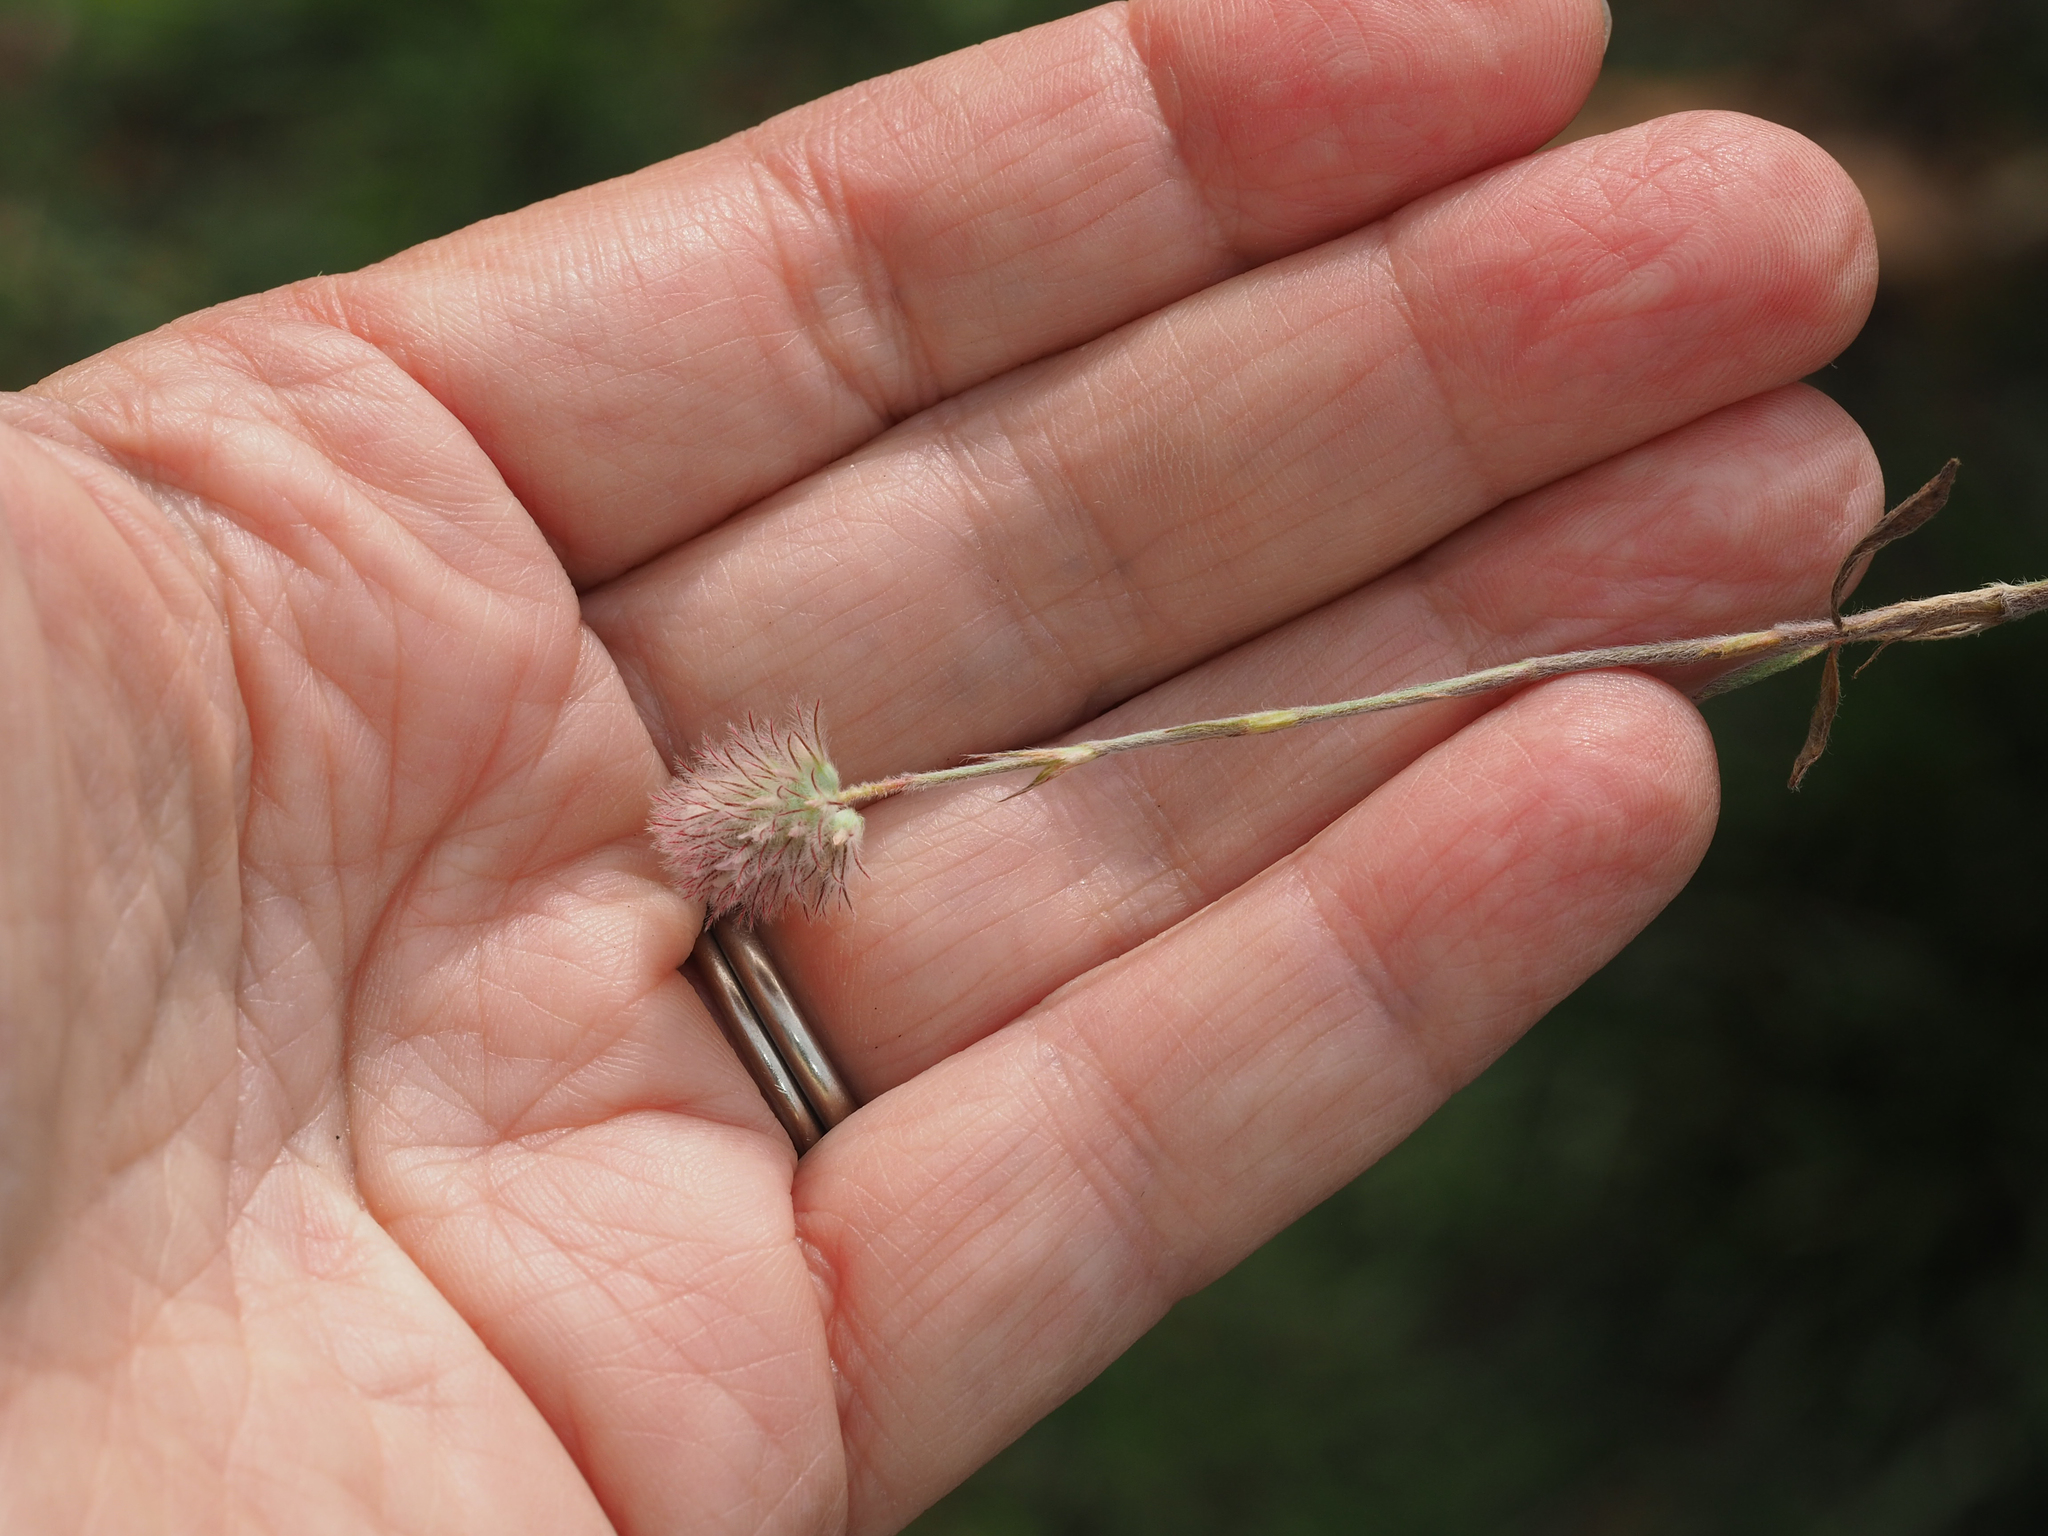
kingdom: Plantae
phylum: Tracheophyta
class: Magnoliopsida
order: Fabales
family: Fabaceae
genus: Trifolium
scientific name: Trifolium arvense
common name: Hare's-foot clover
